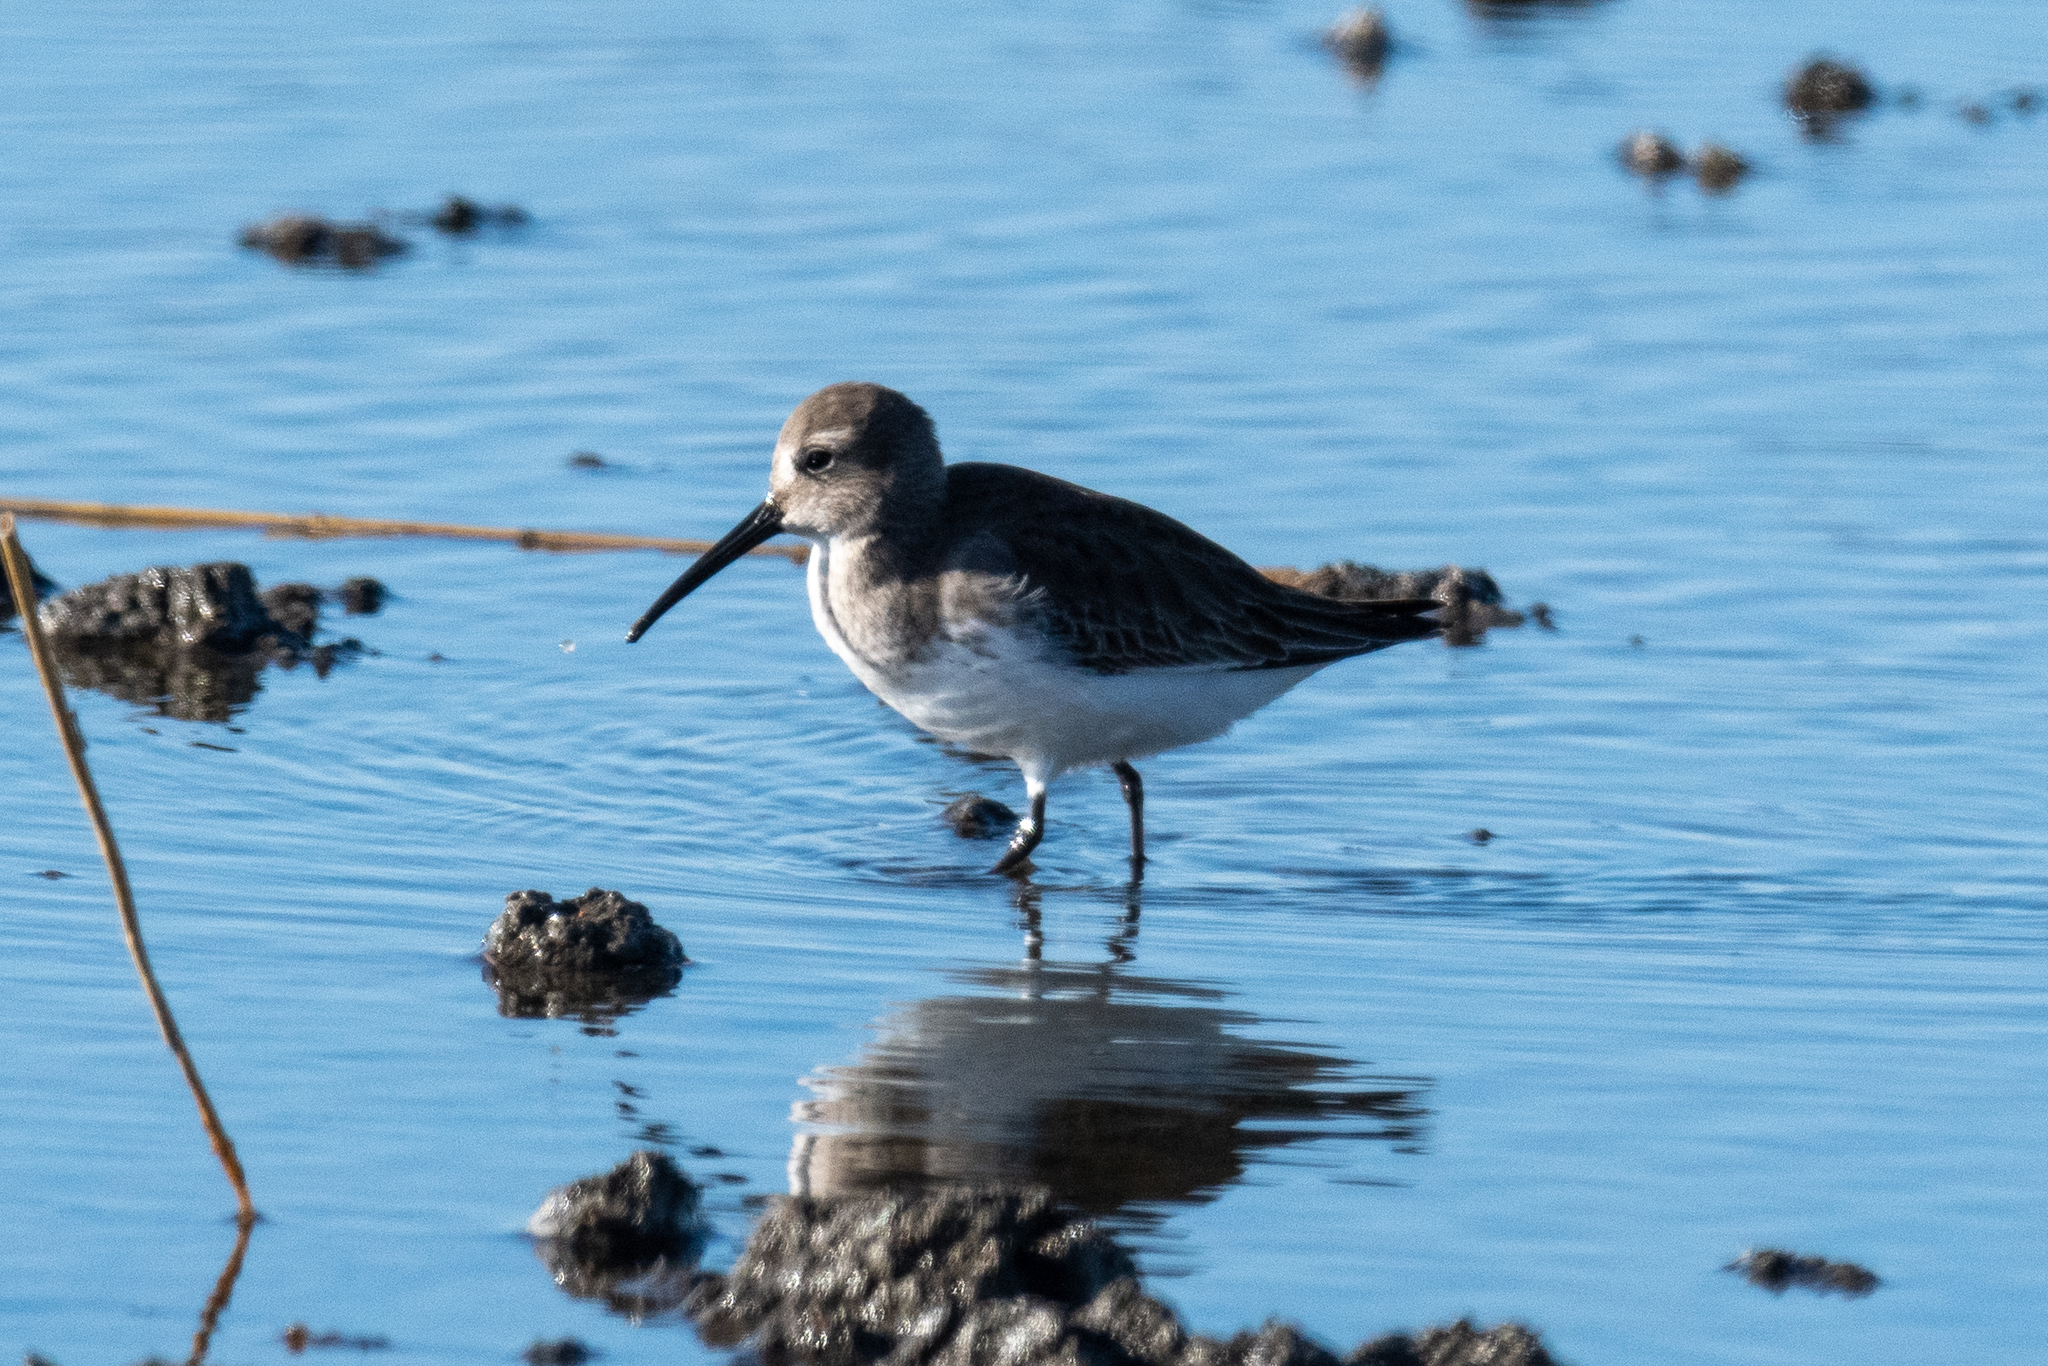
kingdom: Animalia
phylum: Chordata
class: Aves
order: Charadriiformes
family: Scolopacidae
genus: Calidris
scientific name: Calidris alpina
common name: Dunlin
